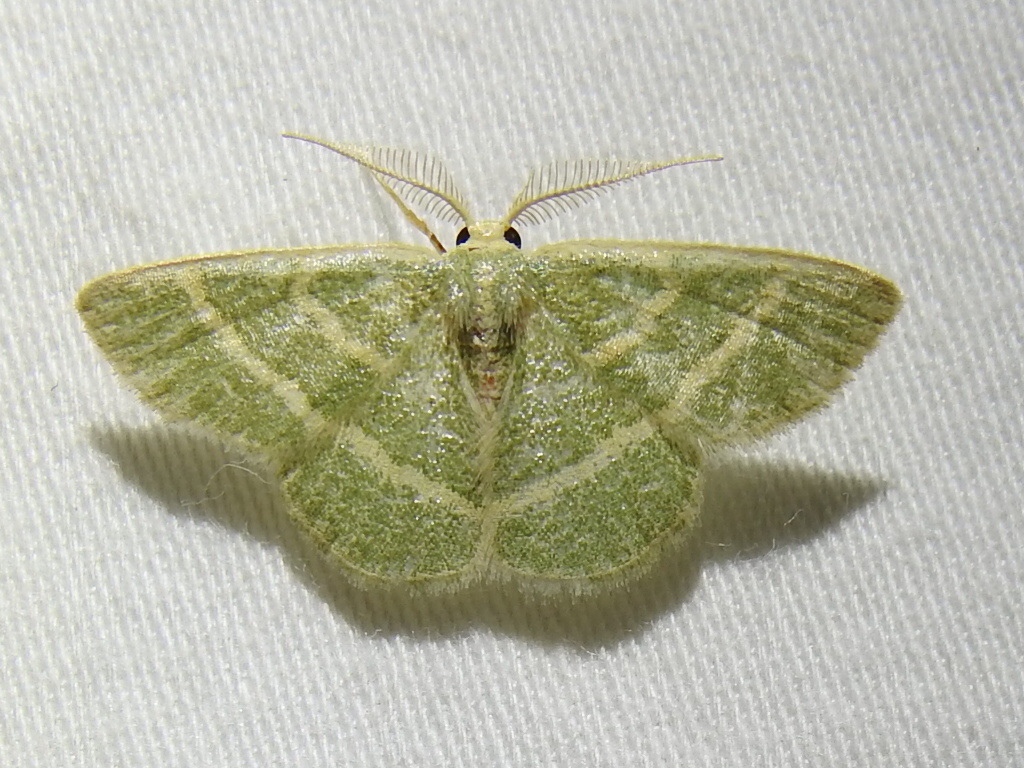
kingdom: Animalia
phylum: Arthropoda
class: Insecta
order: Lepidoptera
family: Geometridae
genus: Chlorochlamys
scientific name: Chlorochlamys chloroleucaria
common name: Blackberry looper
